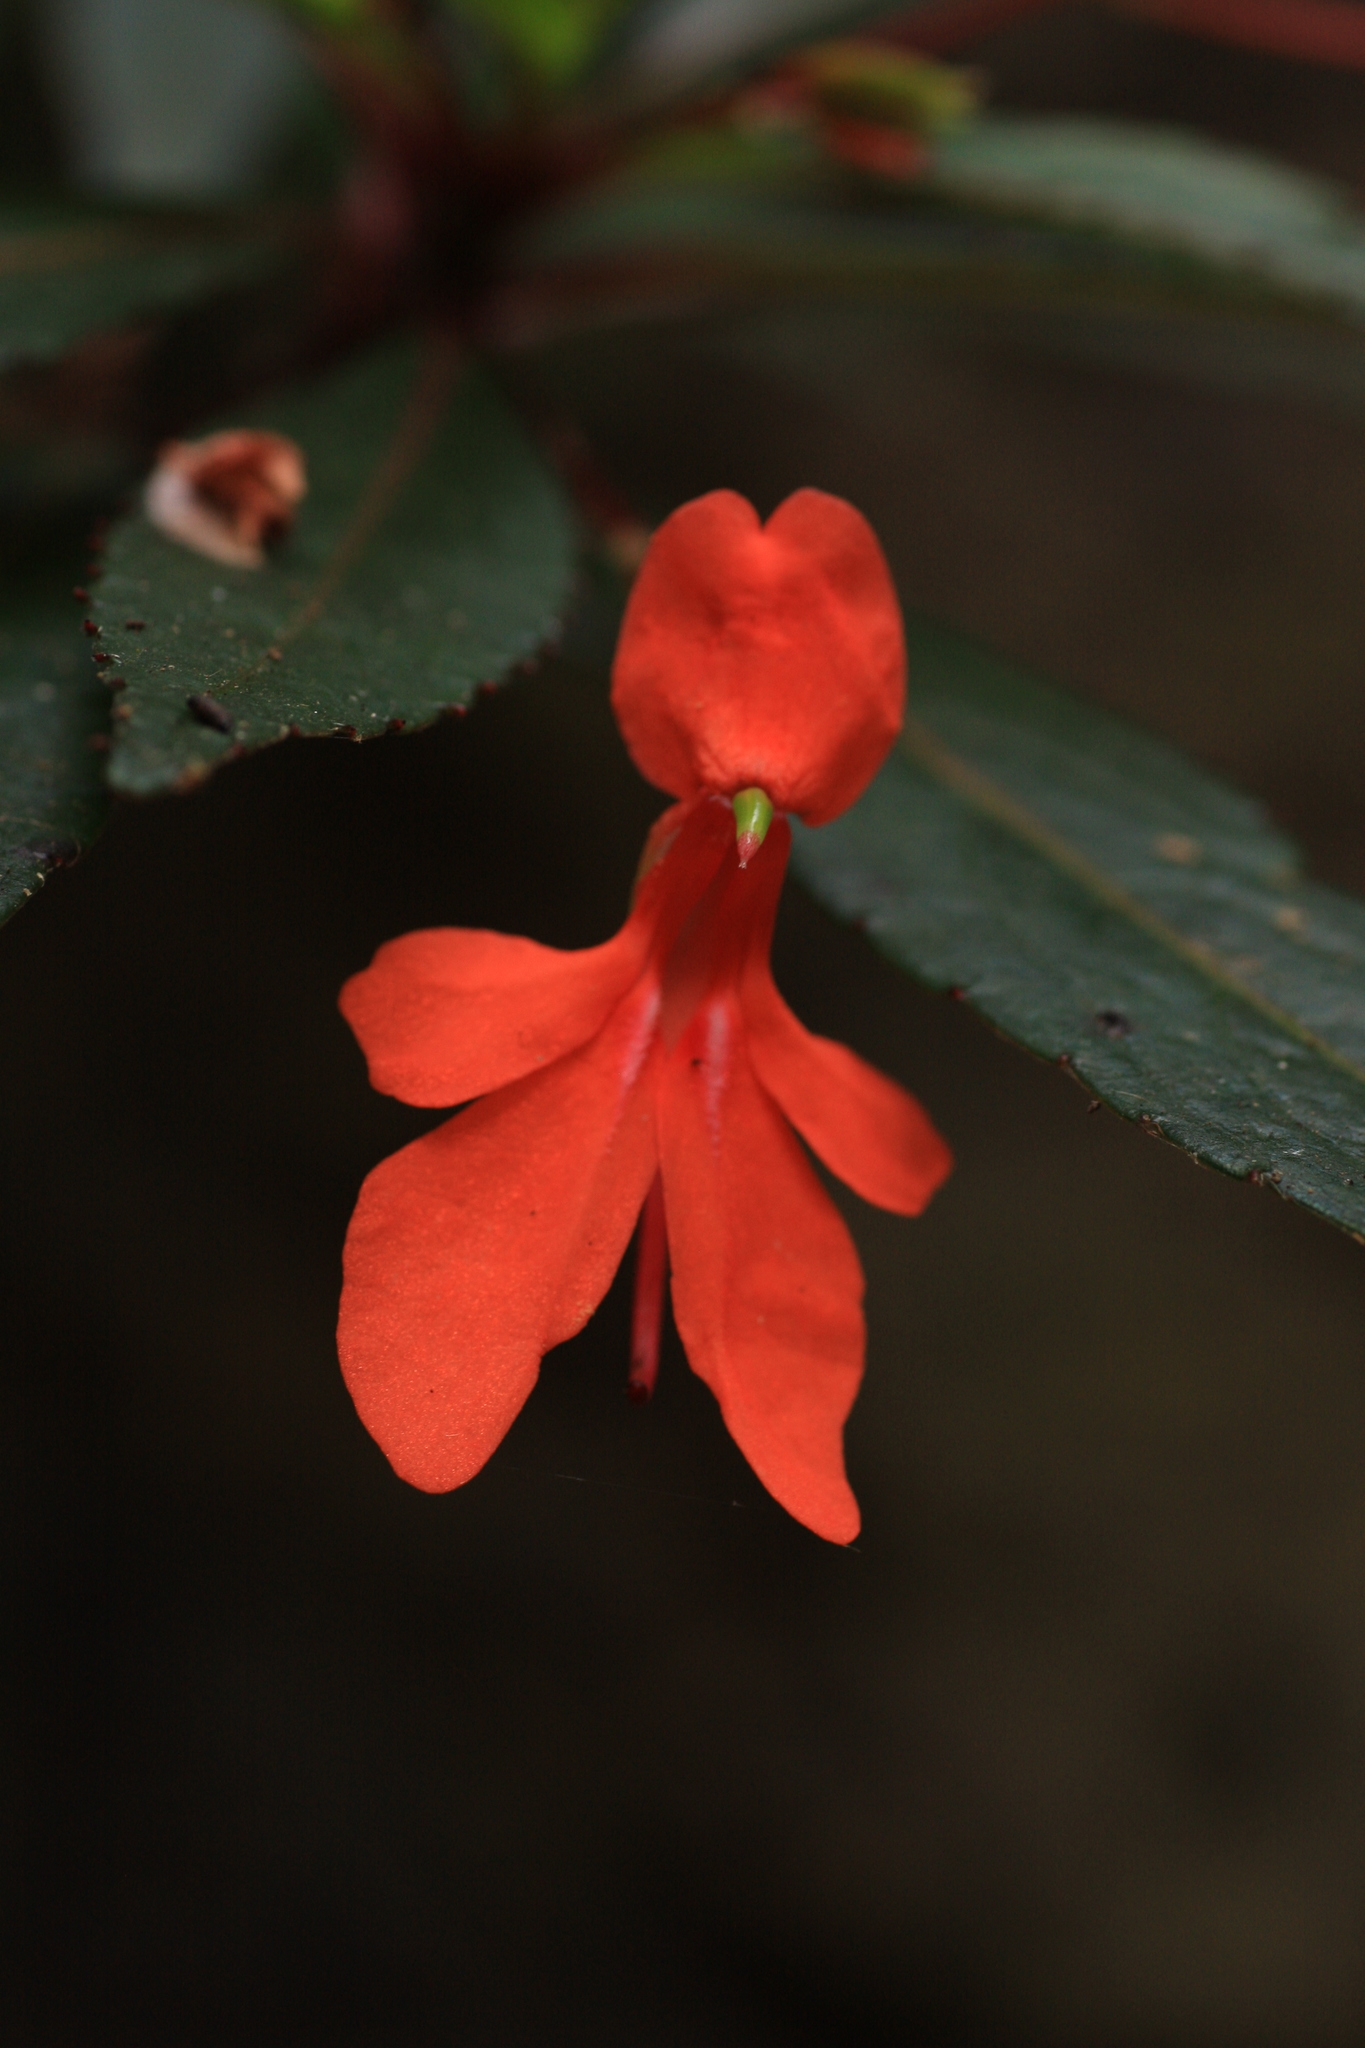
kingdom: Plantae
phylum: Tracheophyta
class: Magnoliopsida
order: Ericales
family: Balsaminaceae
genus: Impatiens
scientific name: Impatiens verticillata
